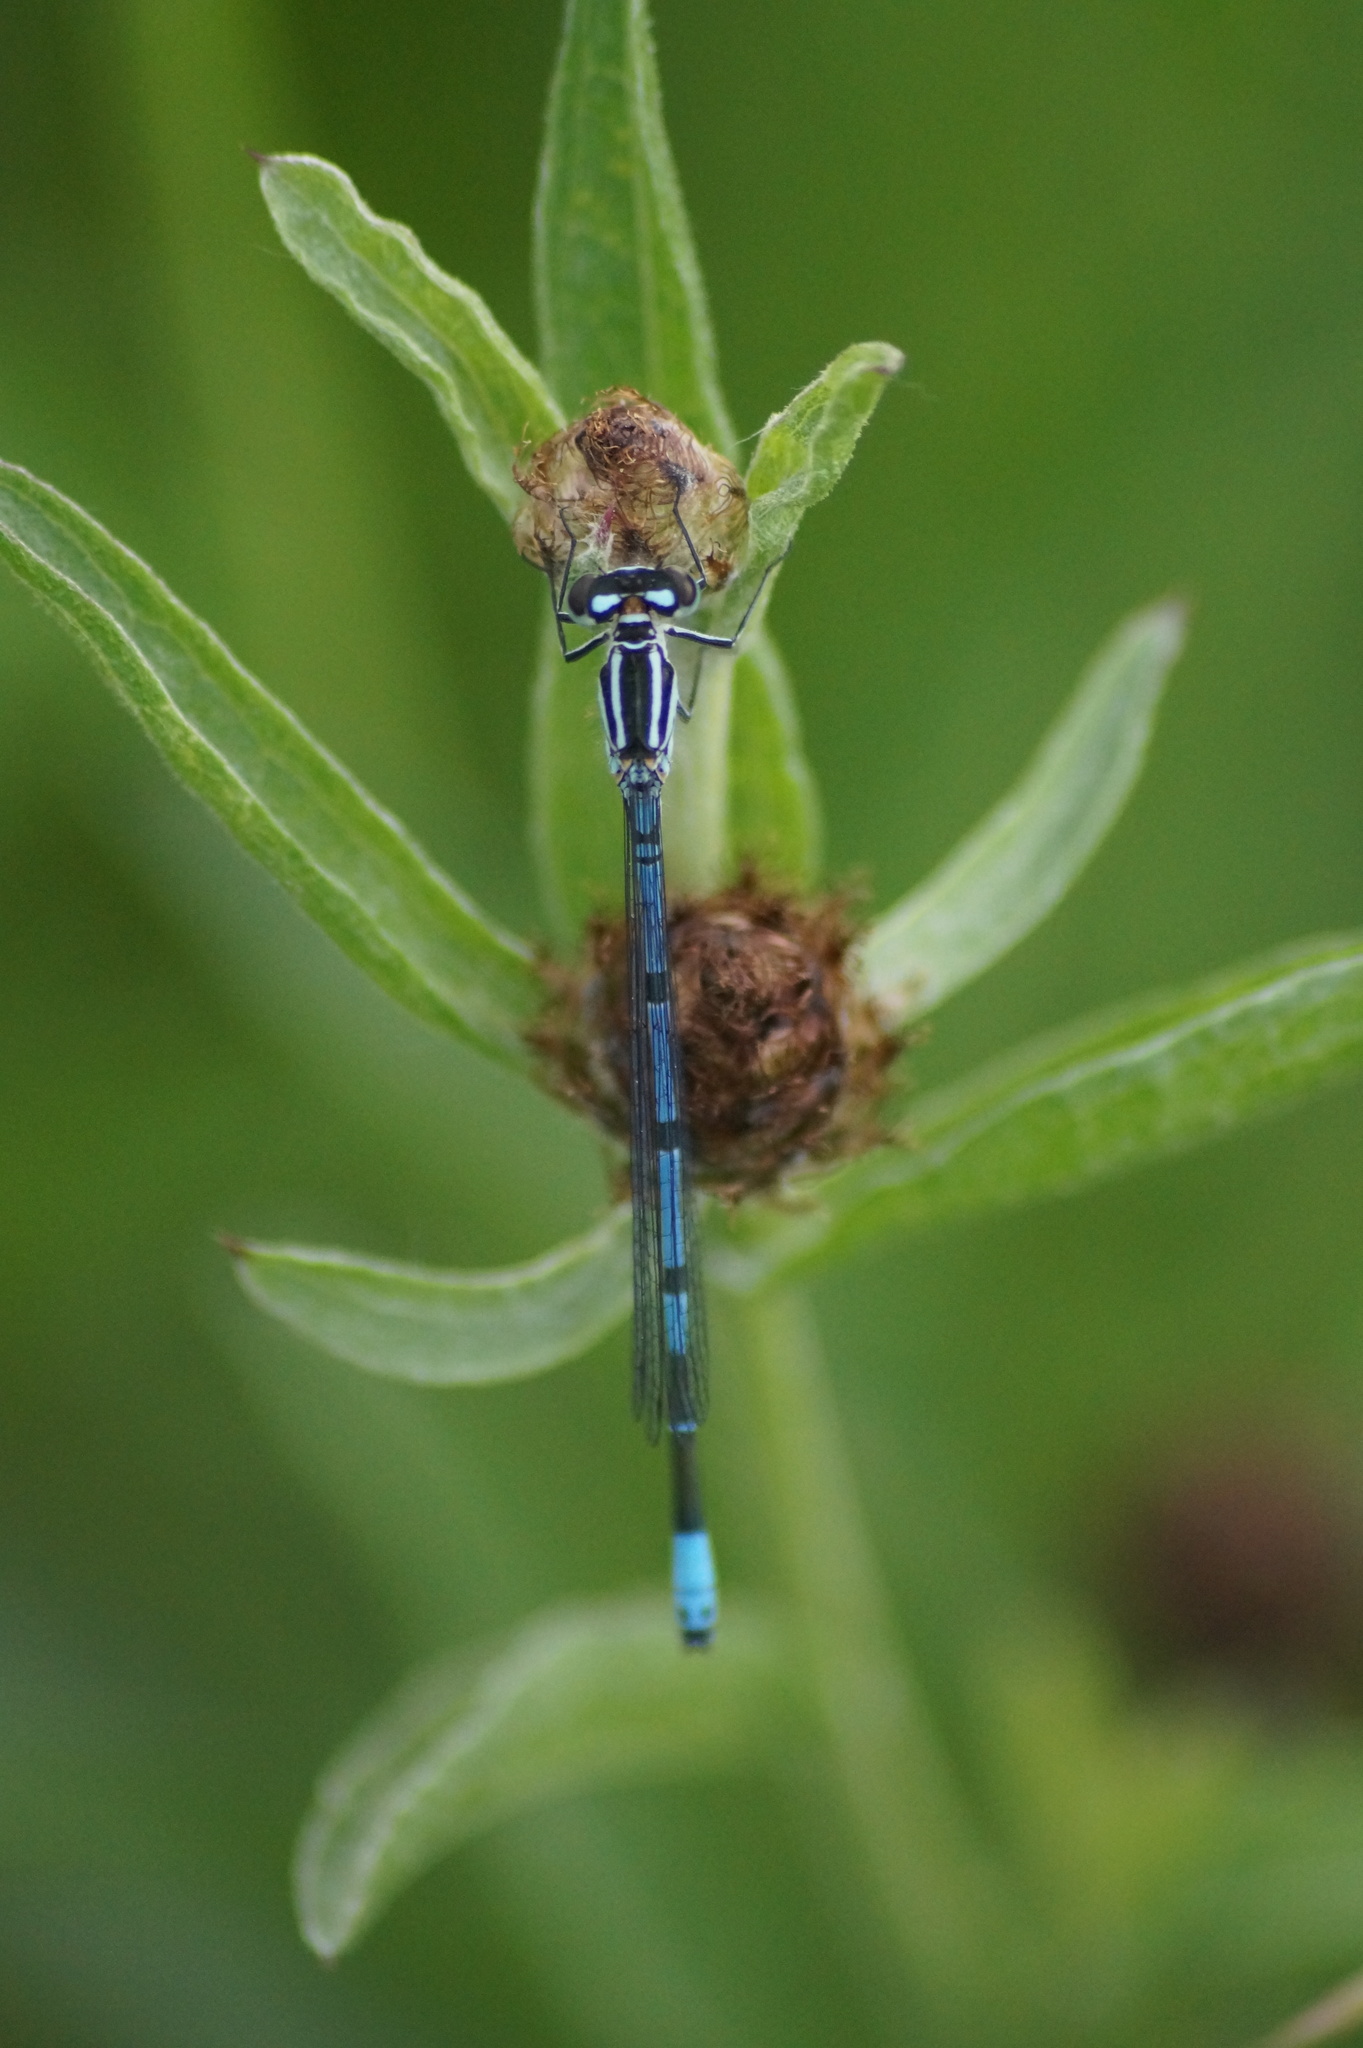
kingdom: Animalia
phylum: Arthropoda
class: Insecta
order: Odonata
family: Coenagrionidae
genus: Coenagrion
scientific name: Coenagrion puella
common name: Azure damselfly
